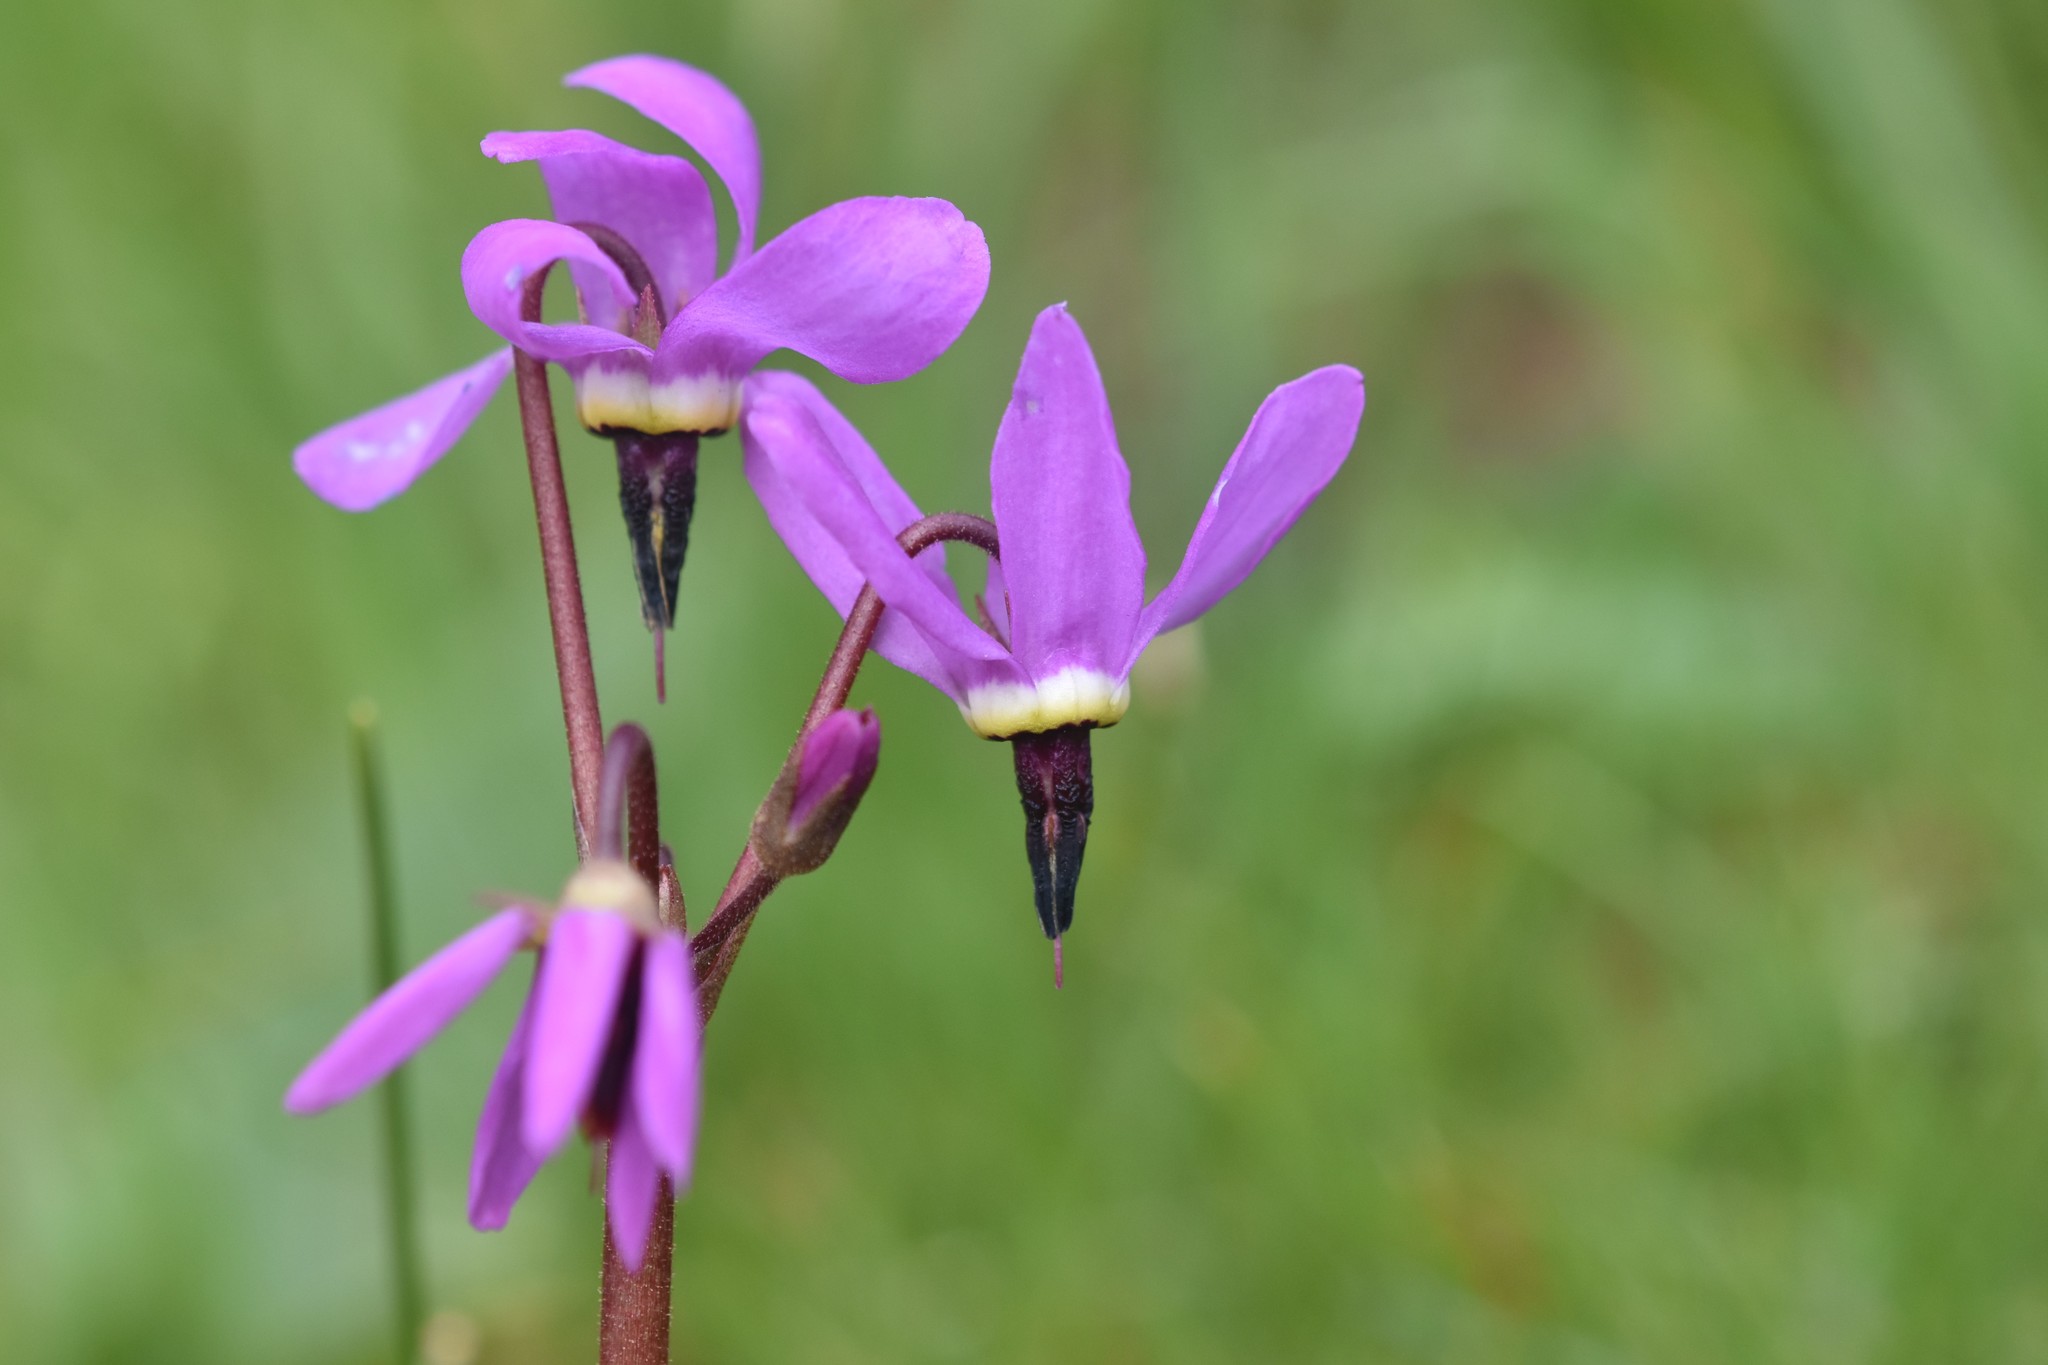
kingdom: Plantae
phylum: Tracheophyta
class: Magnoliopsida
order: Ericales
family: Primulaceae
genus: Dodecatheon
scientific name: Dodecatheon hendersonii
